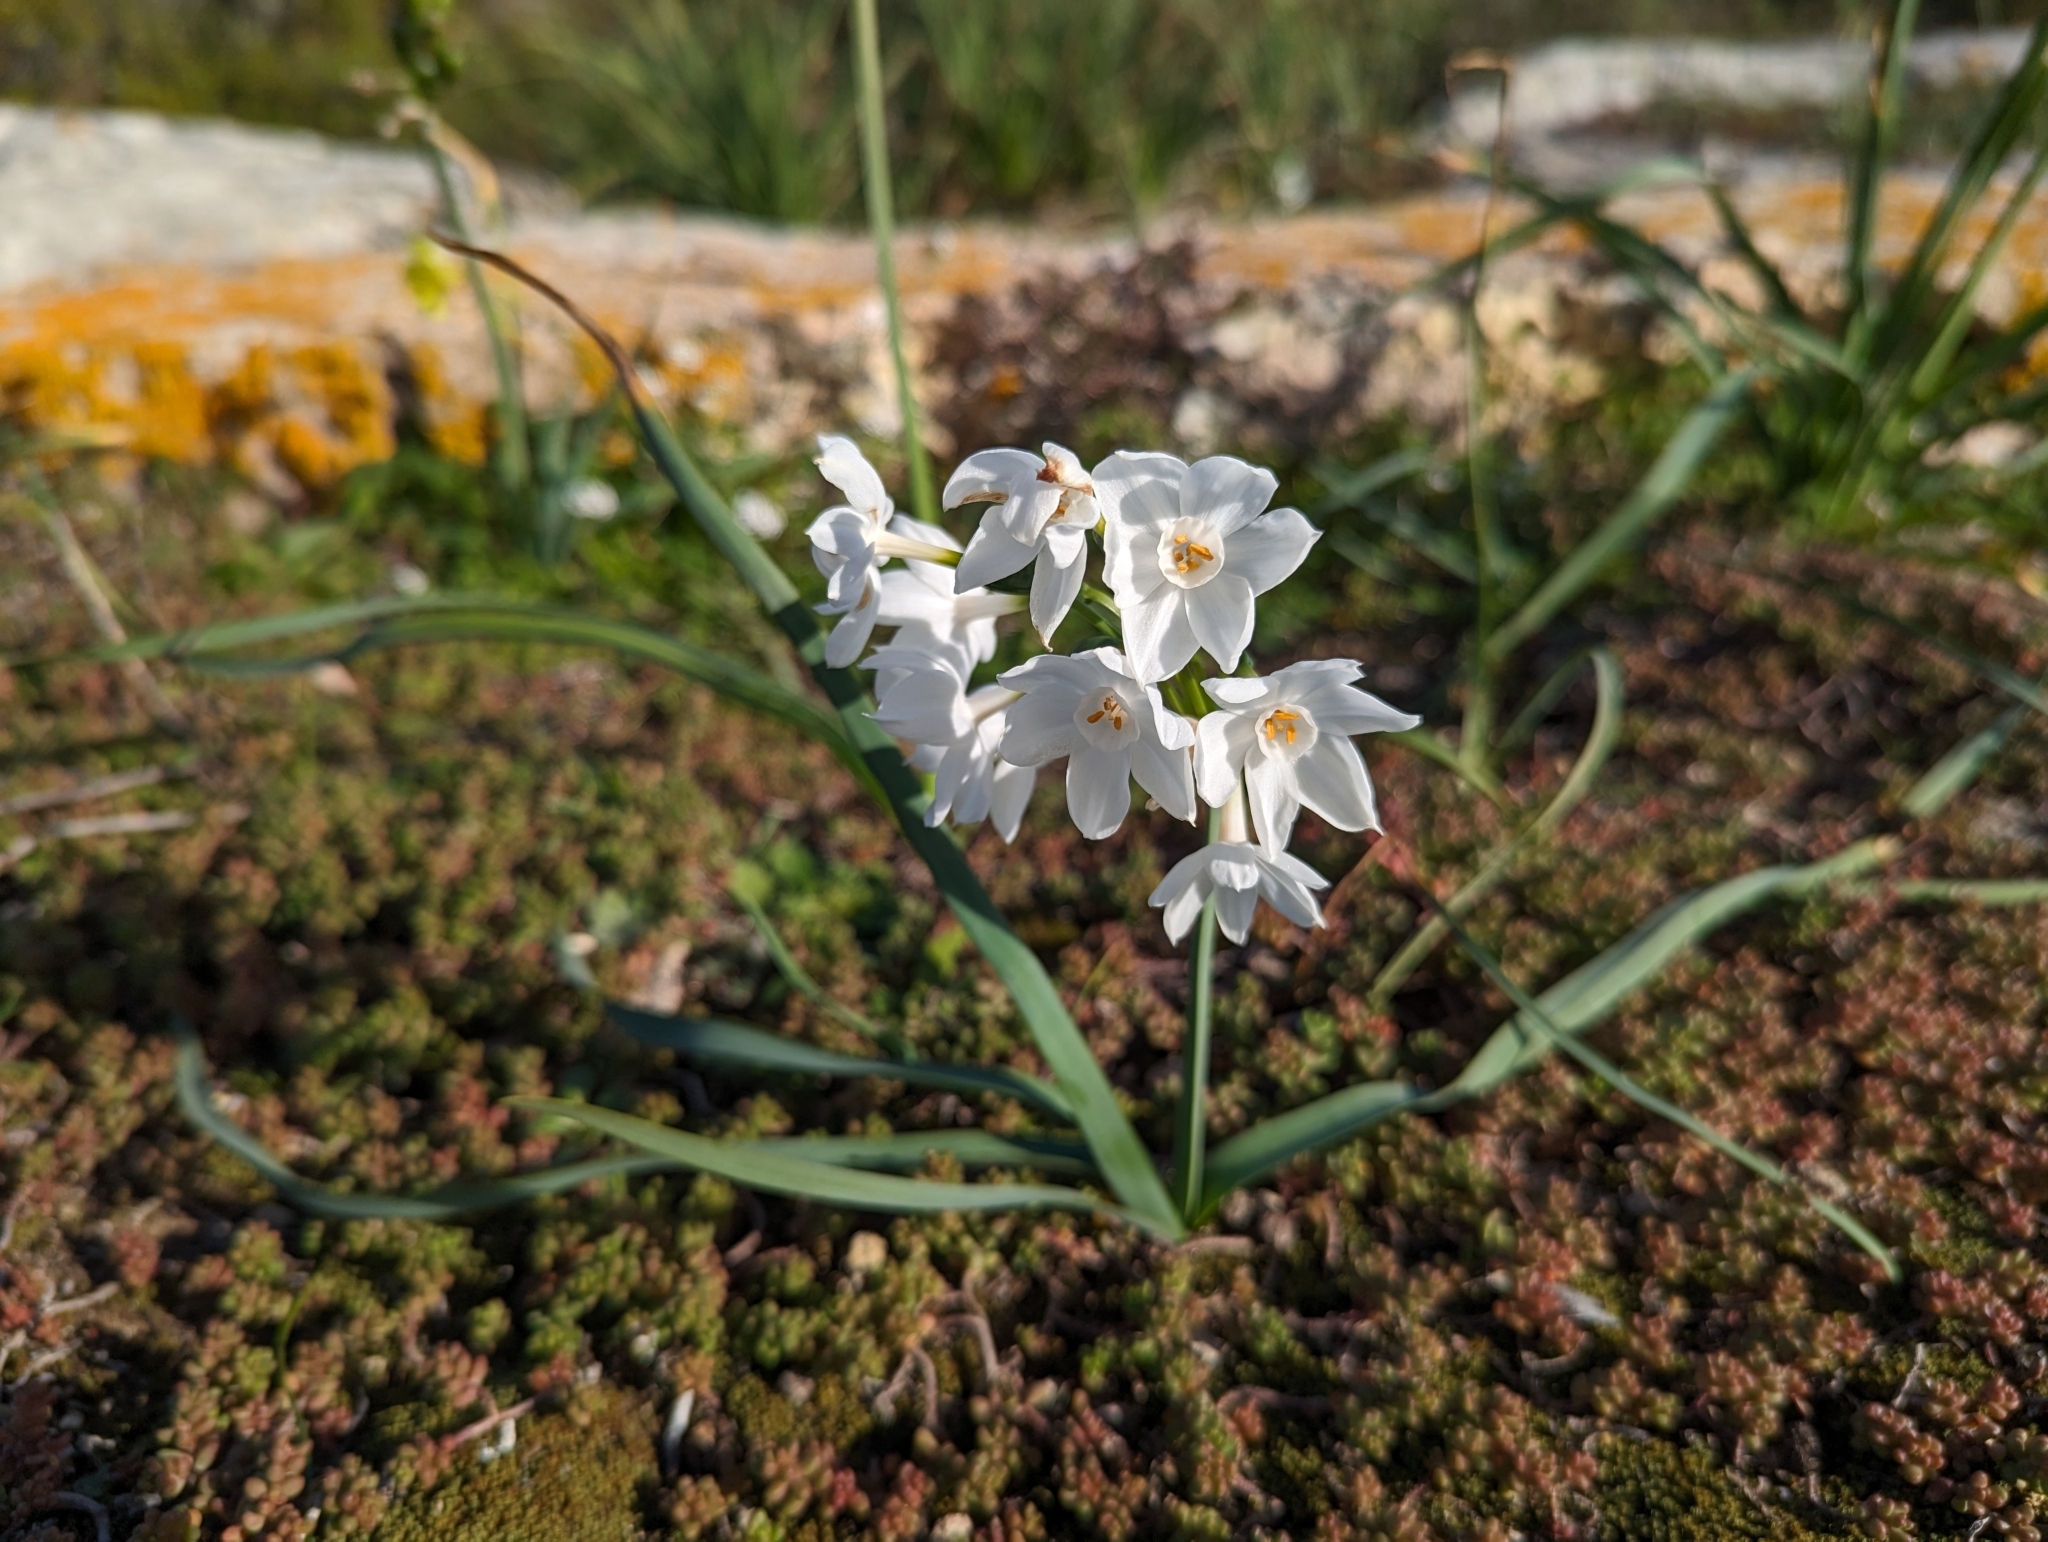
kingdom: Plantae
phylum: Tracheophyta
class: Liliopsida
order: Asparagales
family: Amaryllidaceae
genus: Narcissus
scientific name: Narcissus papyraceus
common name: Paper-white daffodil
